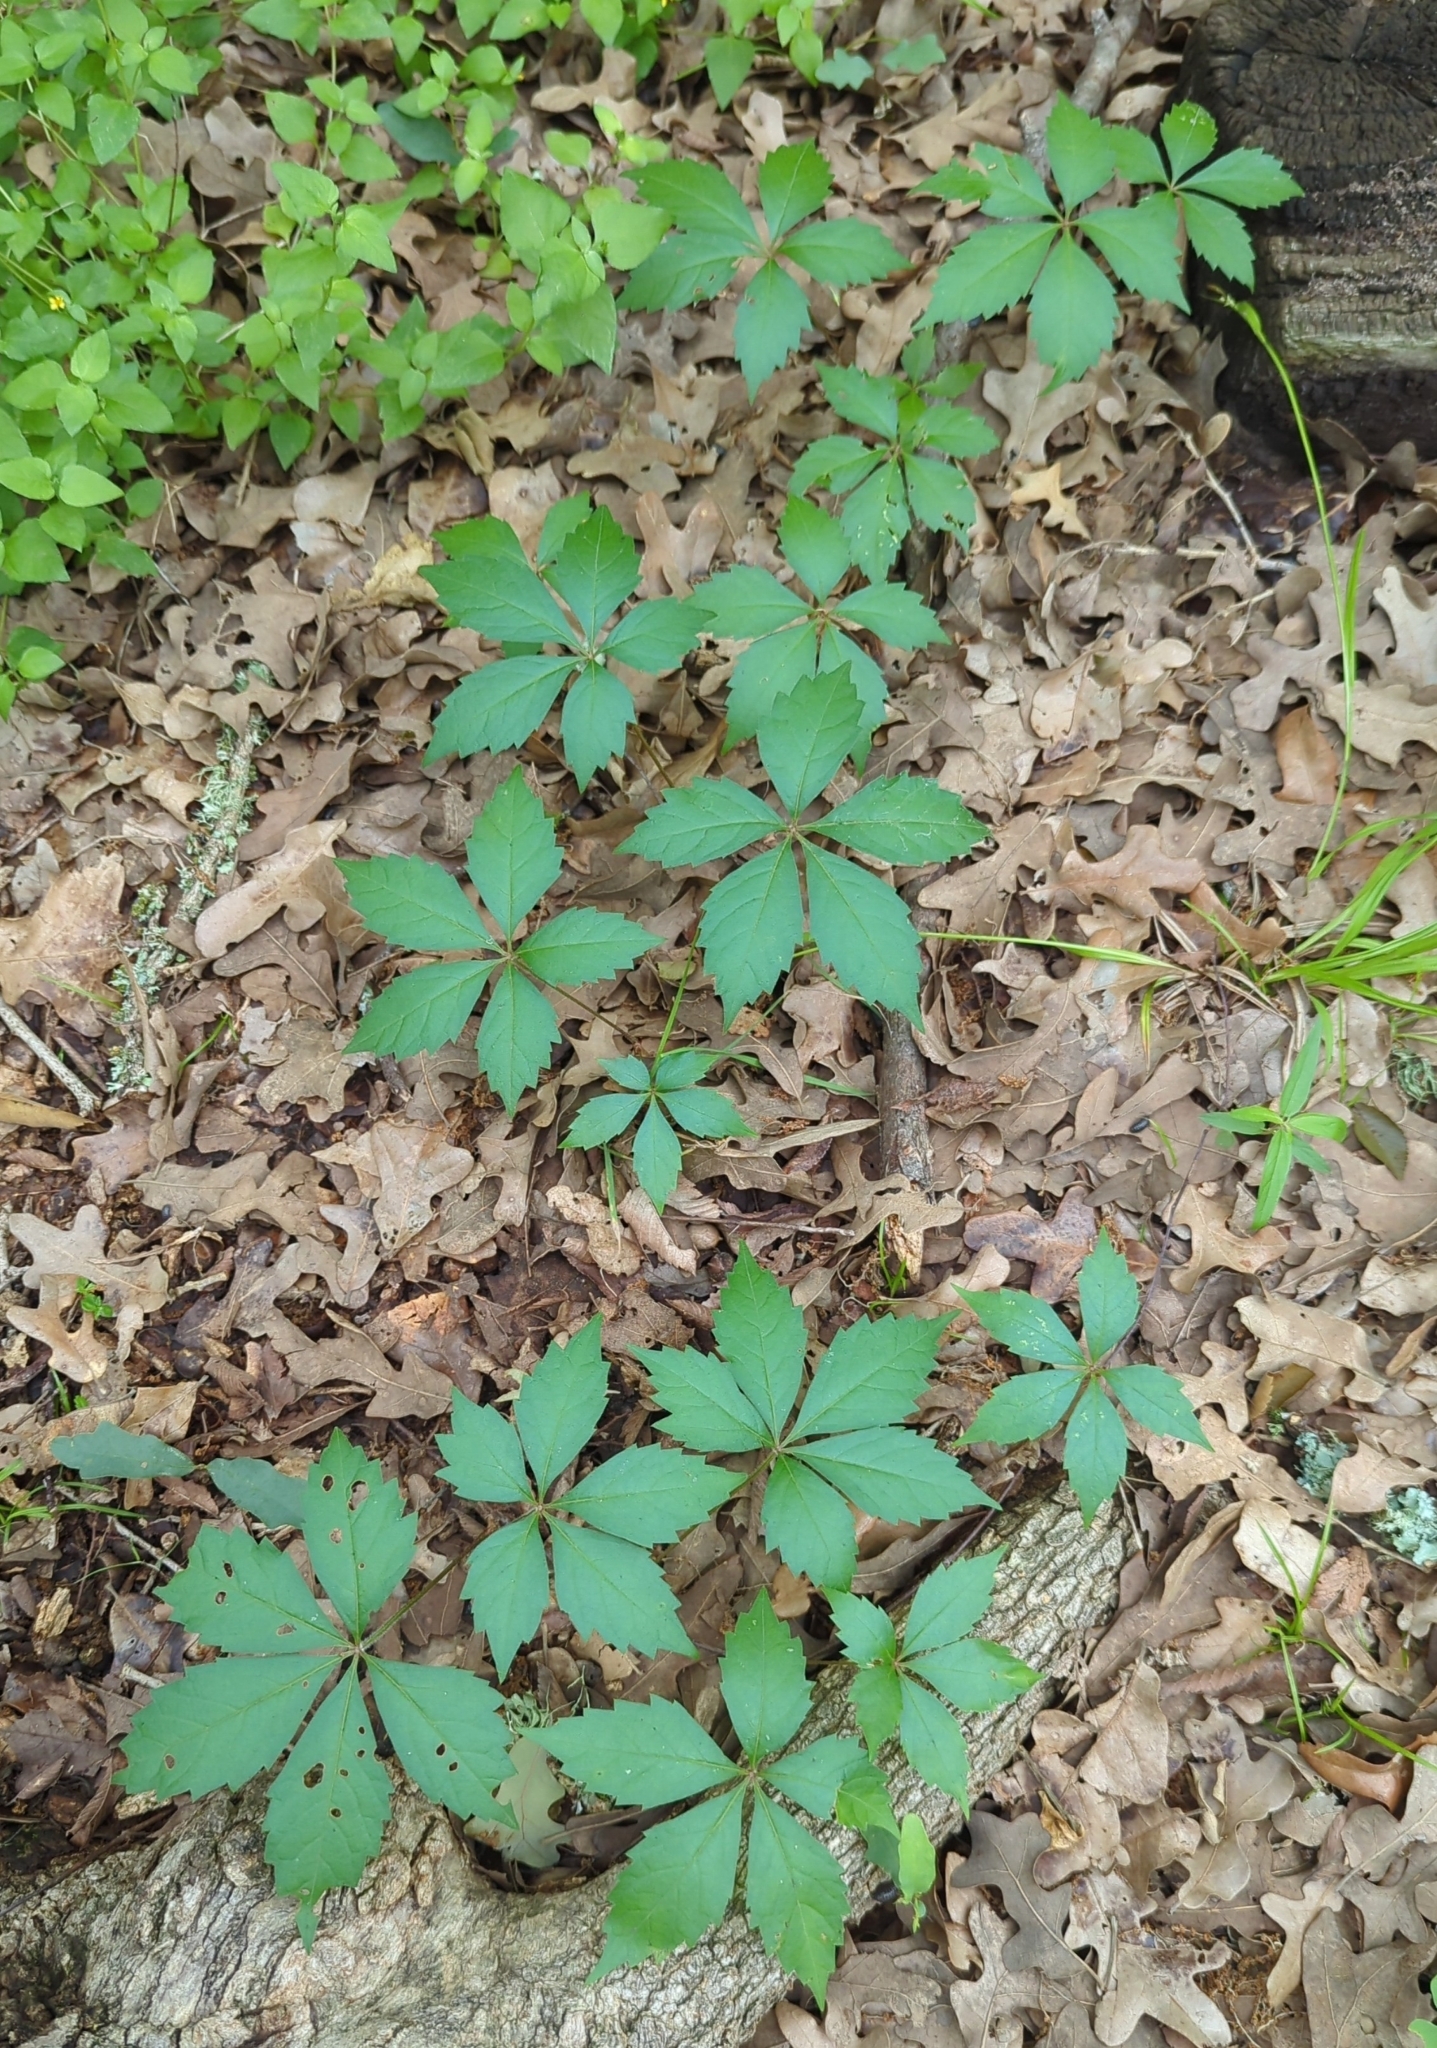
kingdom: Plantae
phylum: Tracheophyta
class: Magnoliopsida
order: Vitales
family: Vitaceae
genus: Parthenocissus
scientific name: Parthenocissus quinquefolia
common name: Virginia-creeper
